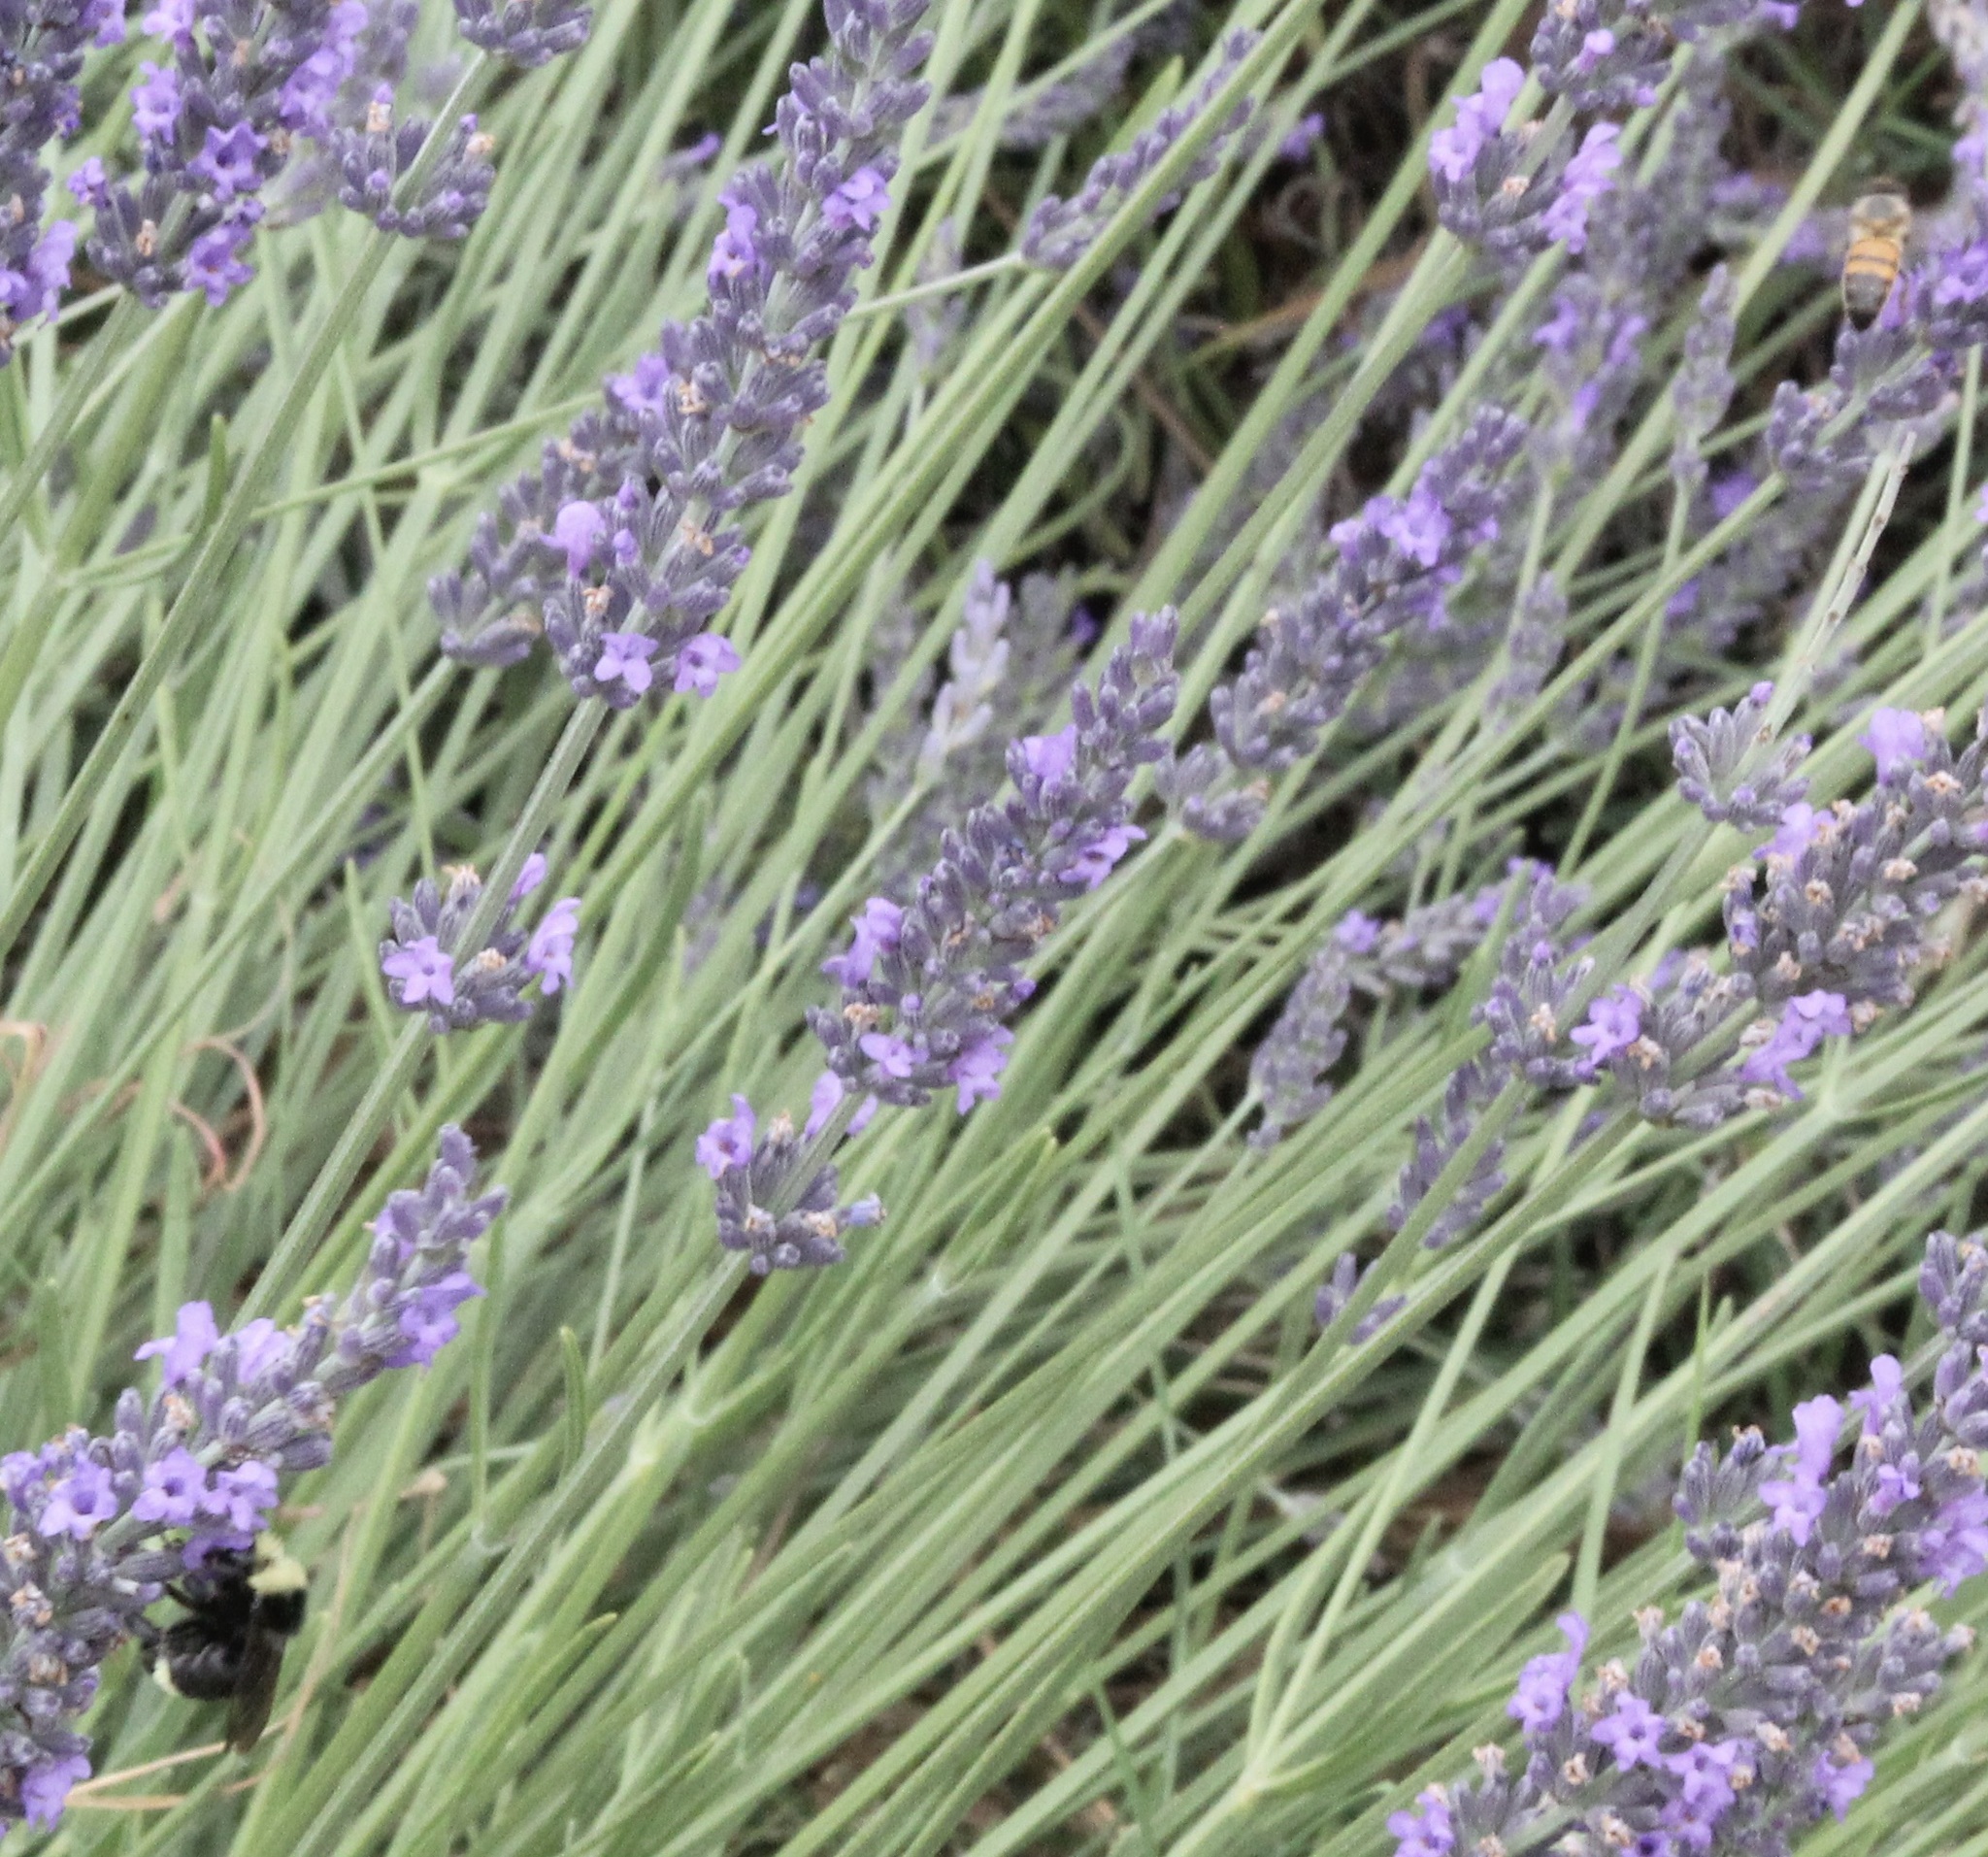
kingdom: Animalia
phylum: Arthropoda
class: Insecta
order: Hymenoptera
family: Apidae
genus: Bombus
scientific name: Bombus vosnesenskii
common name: Vosnesensky bumble bee
